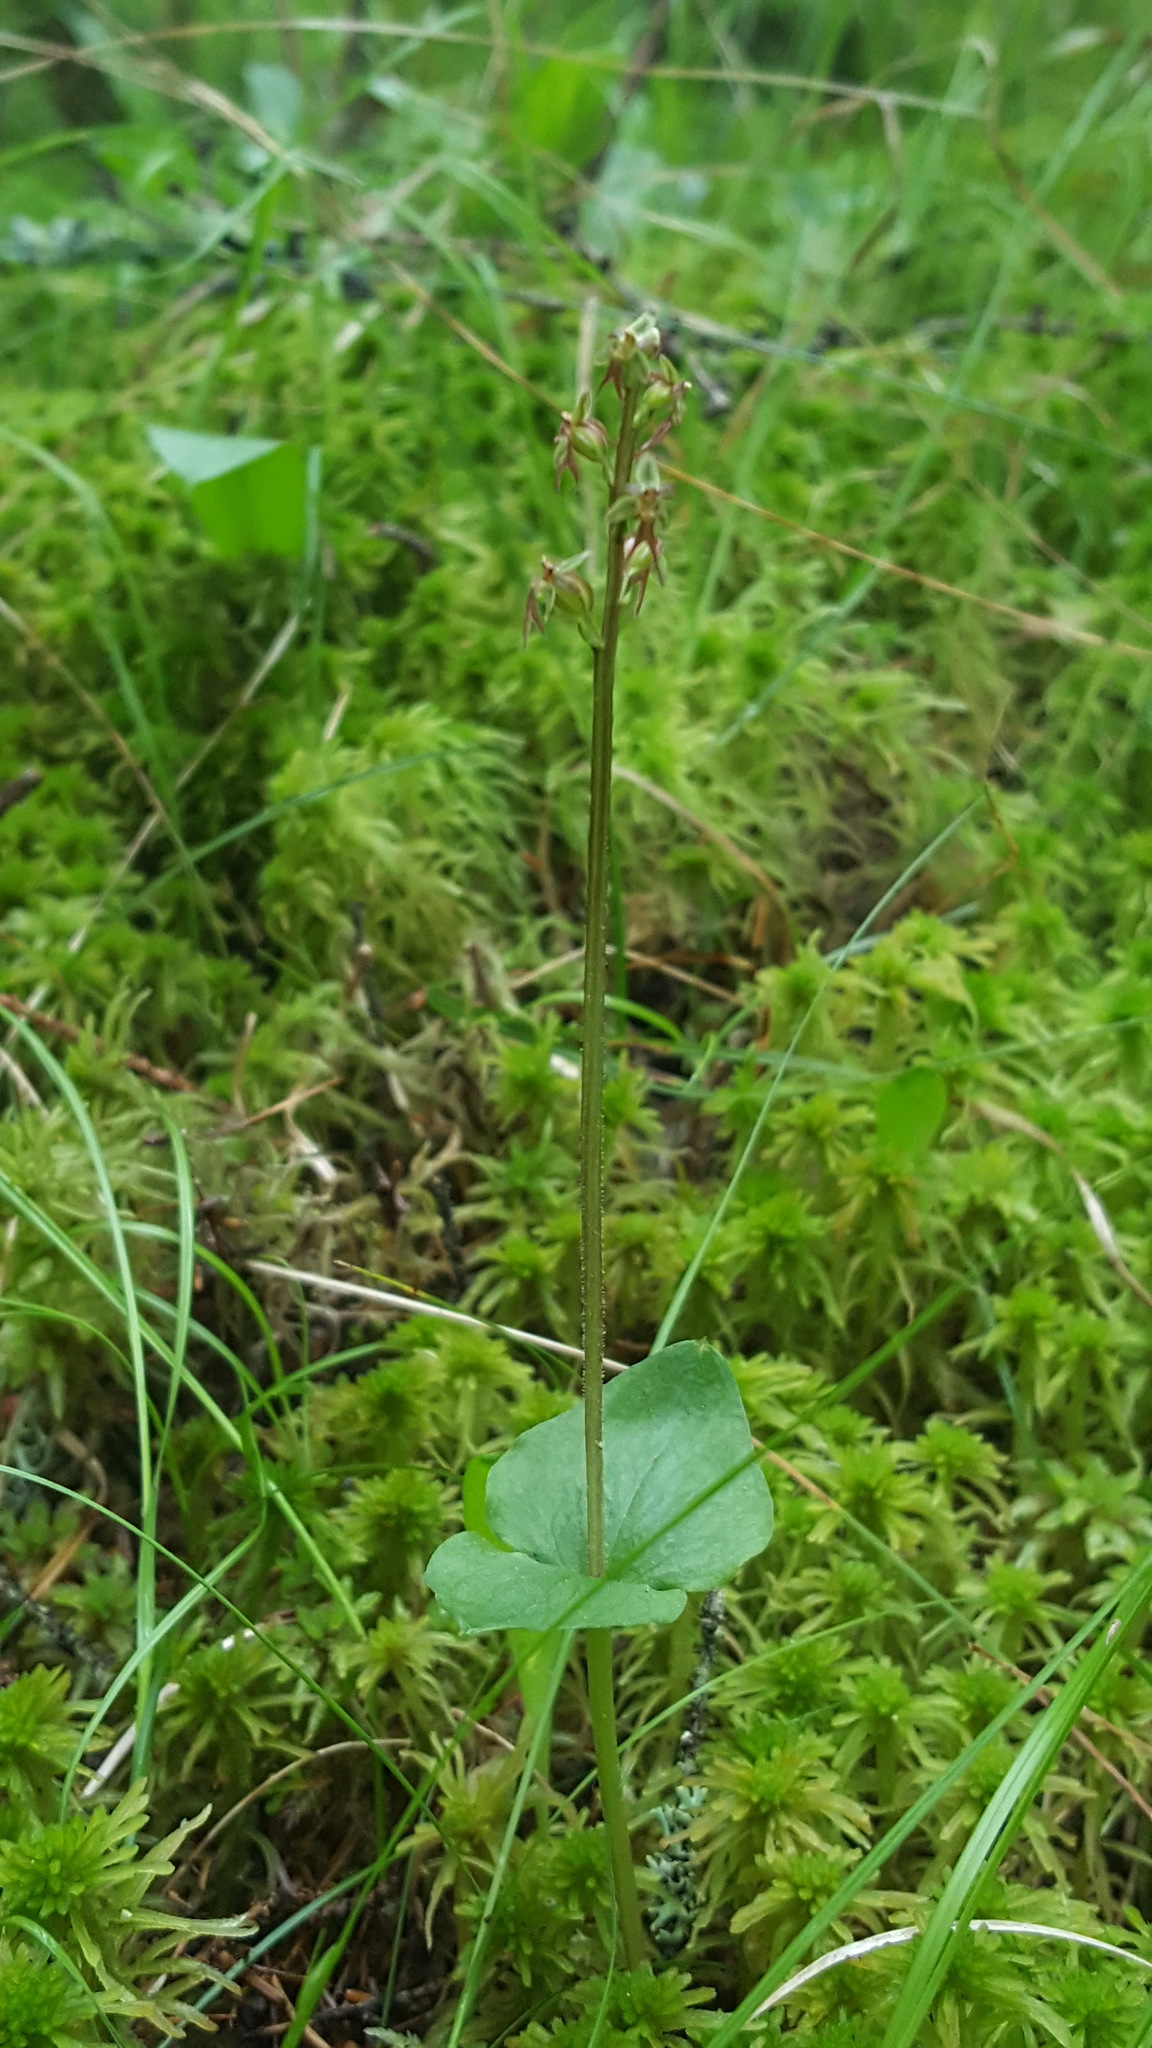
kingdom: Plantae
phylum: Tracheophyta
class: Liliopsida
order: Asparagales
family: Orchidaceae
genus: Neottia
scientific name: Neottia cordata
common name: Lesser twayblade
